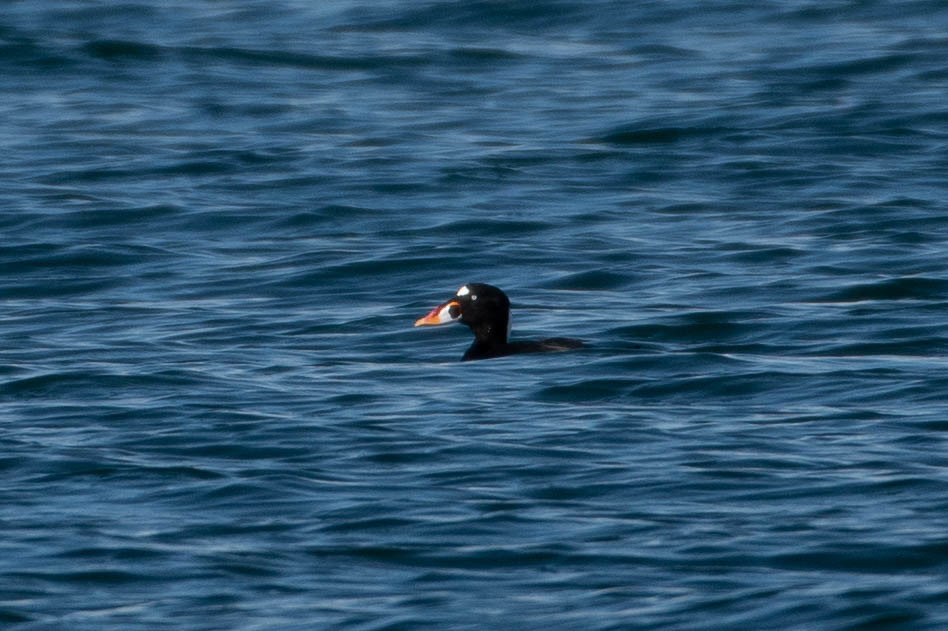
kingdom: Animalia
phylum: Chordata
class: Aves
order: Anseriformes
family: Anatidae
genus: Melanitta
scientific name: Melanitta perspicillata
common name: Surf scoter
